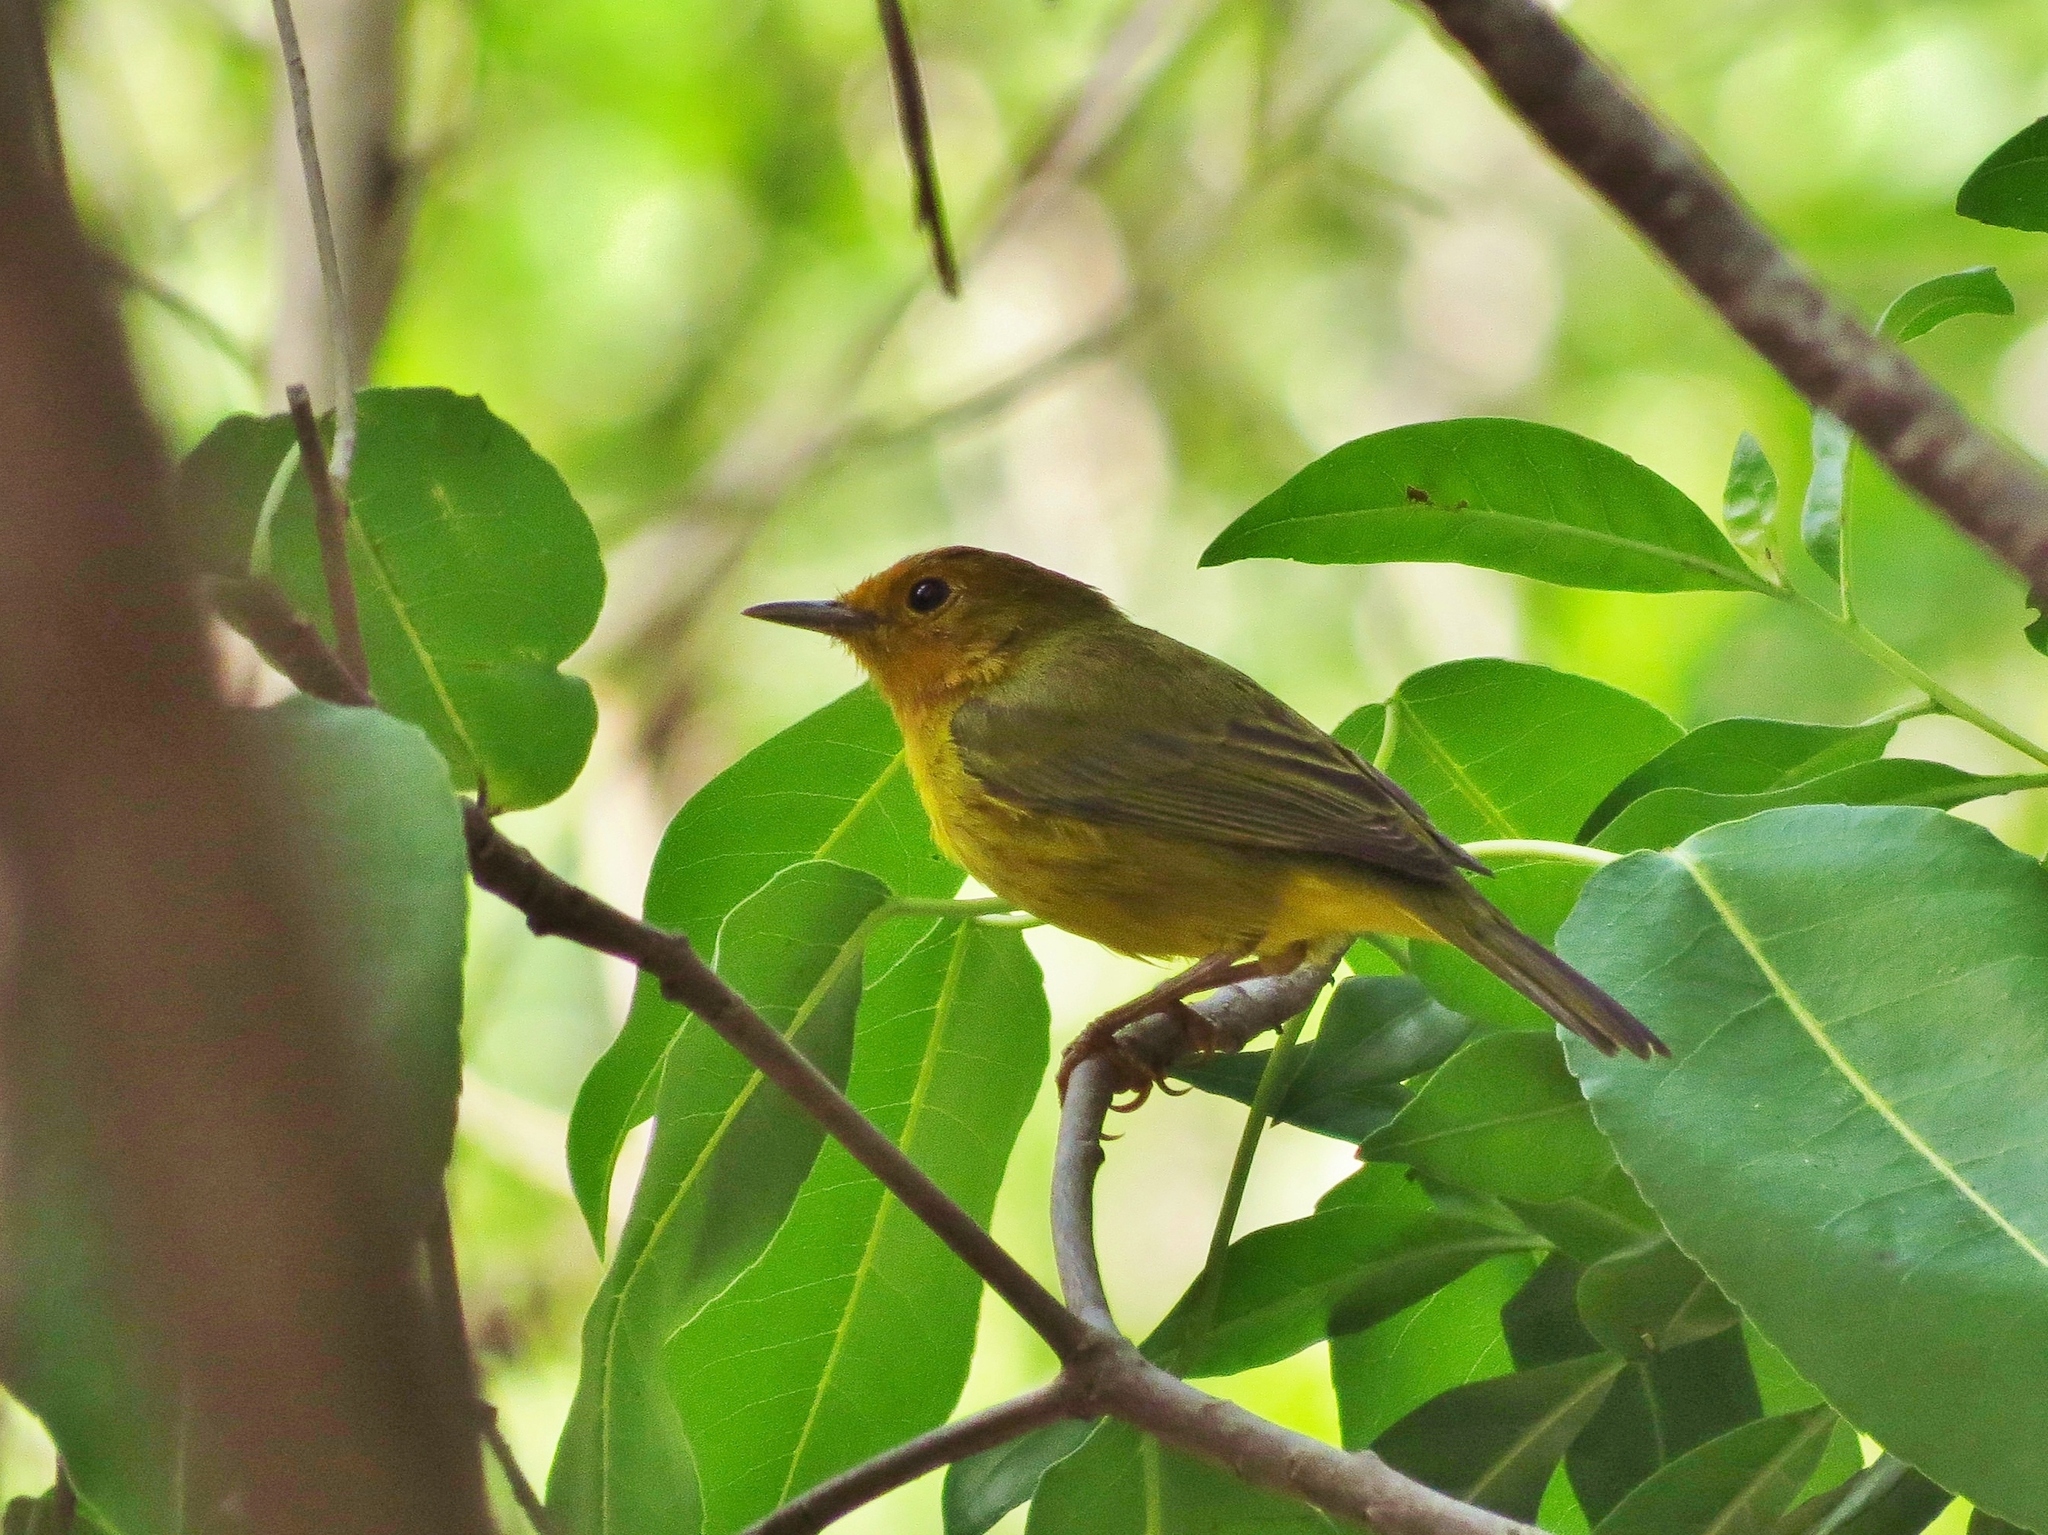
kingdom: Animalia
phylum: Chordata
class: Aves
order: Passeriformes
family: Parulidae
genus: Setophaga
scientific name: Setophaga petechia
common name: Yellow warbler
